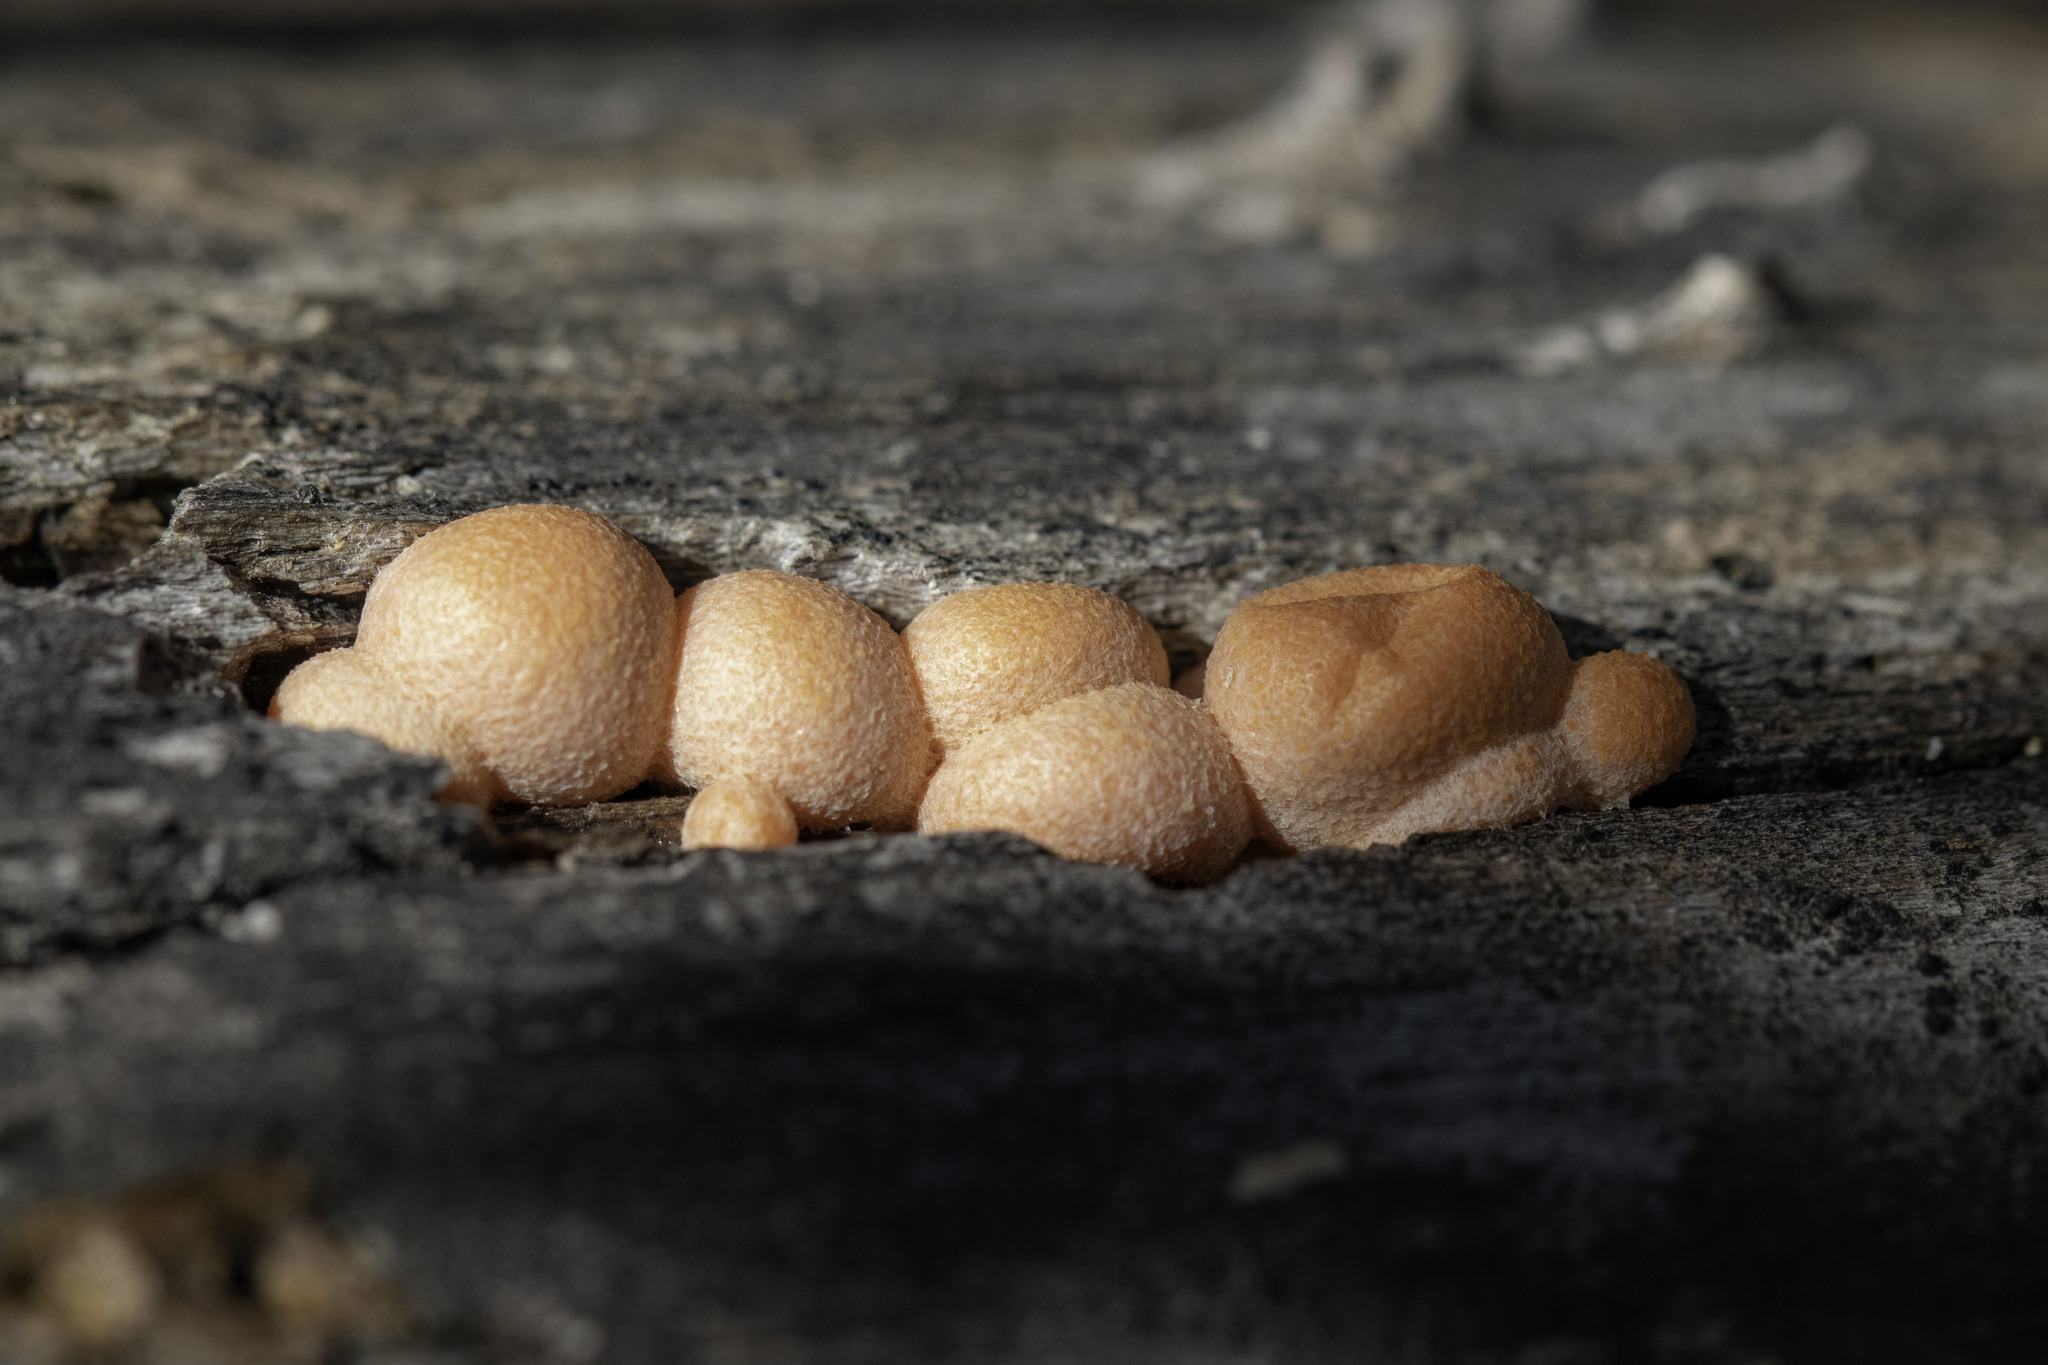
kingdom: Protozoa
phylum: Mycetozoa
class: Myxomycetes
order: Cribrariales
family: Tubiferaceae
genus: Lycogala
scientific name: Lycogala epidendrum
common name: Wolf's milk
